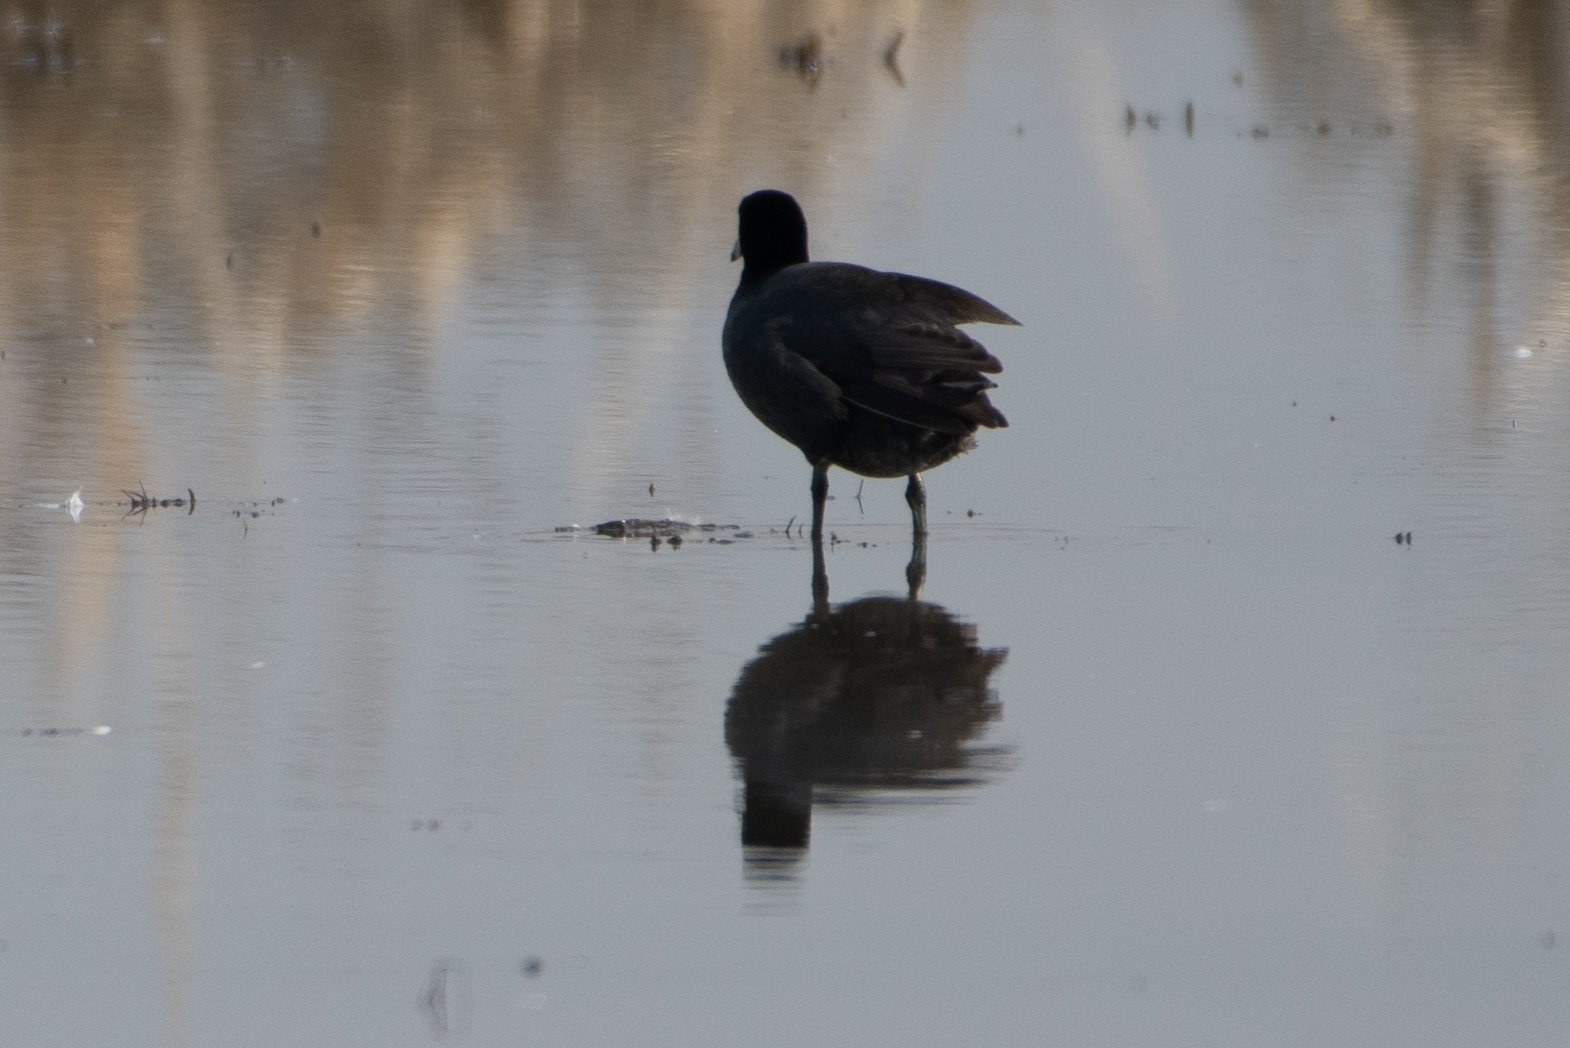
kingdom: Animalia
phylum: Chordata
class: Aves
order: Gruiformes
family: Rallidae
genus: Fulica
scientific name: Fulica americana
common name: American coot
